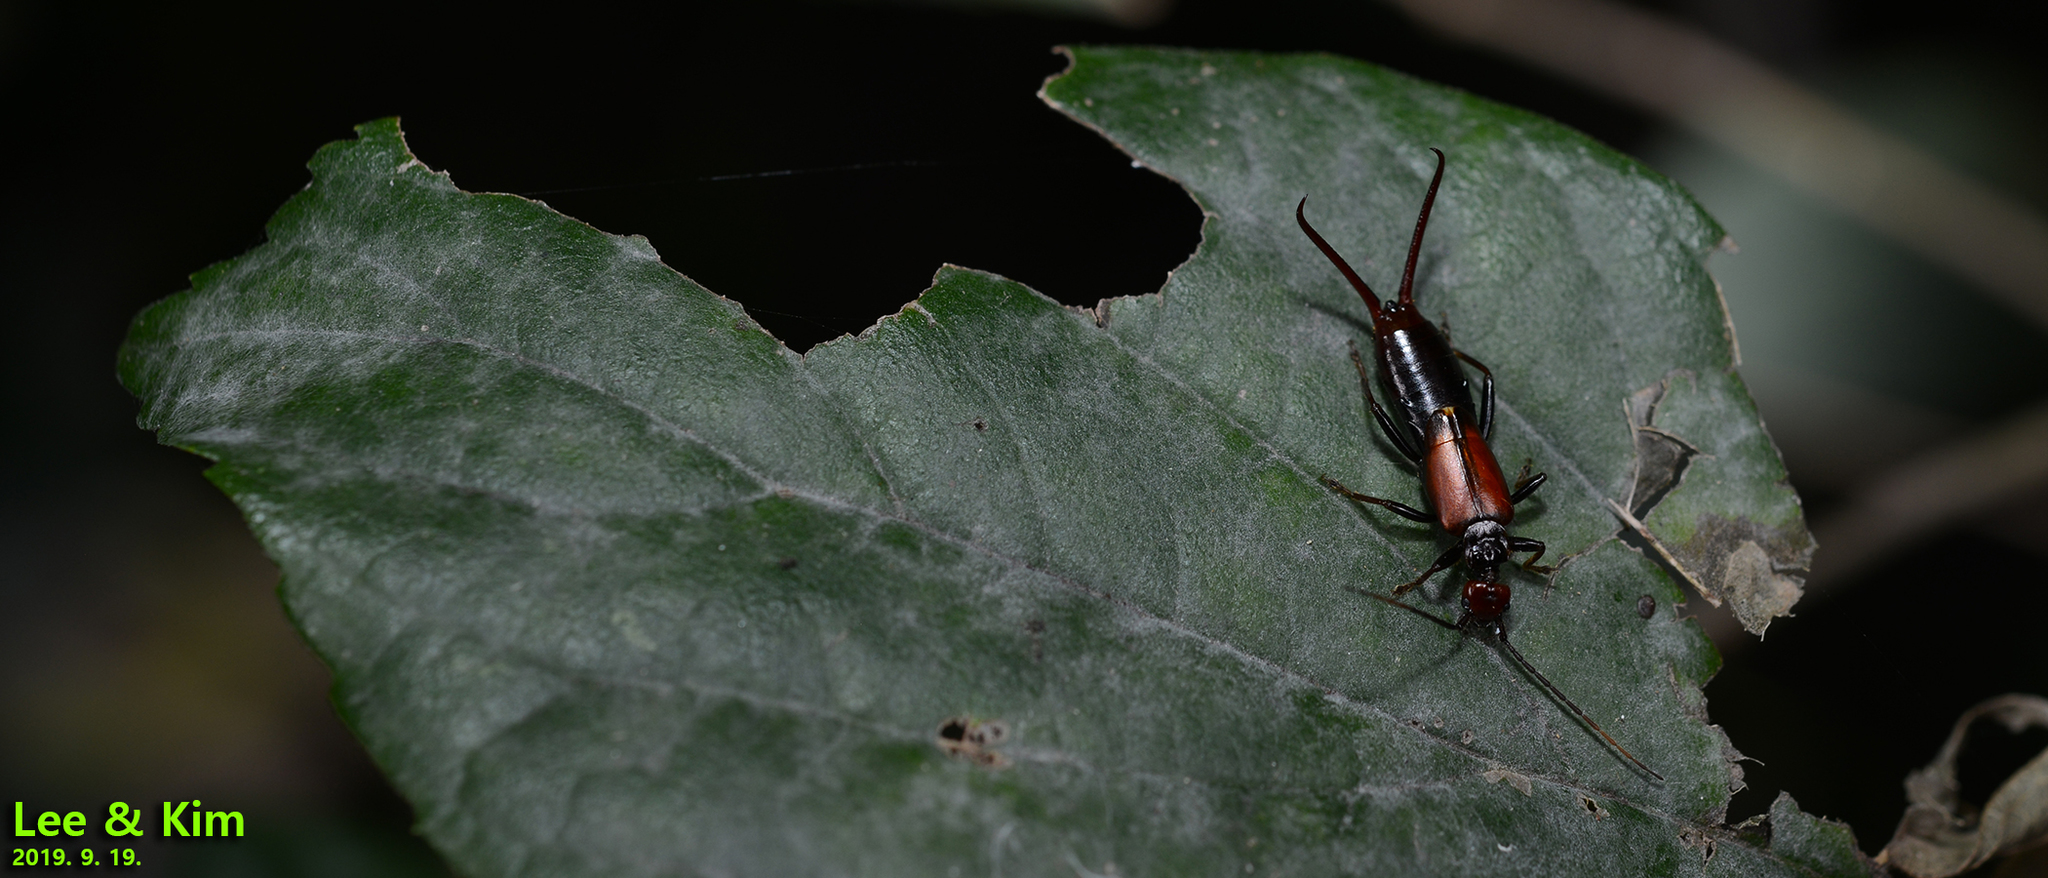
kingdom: Animalia
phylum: Arthropoda
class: Insecta
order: Dermaptera
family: Forficulidae
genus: Timomenus
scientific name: Timomenus komarovi
